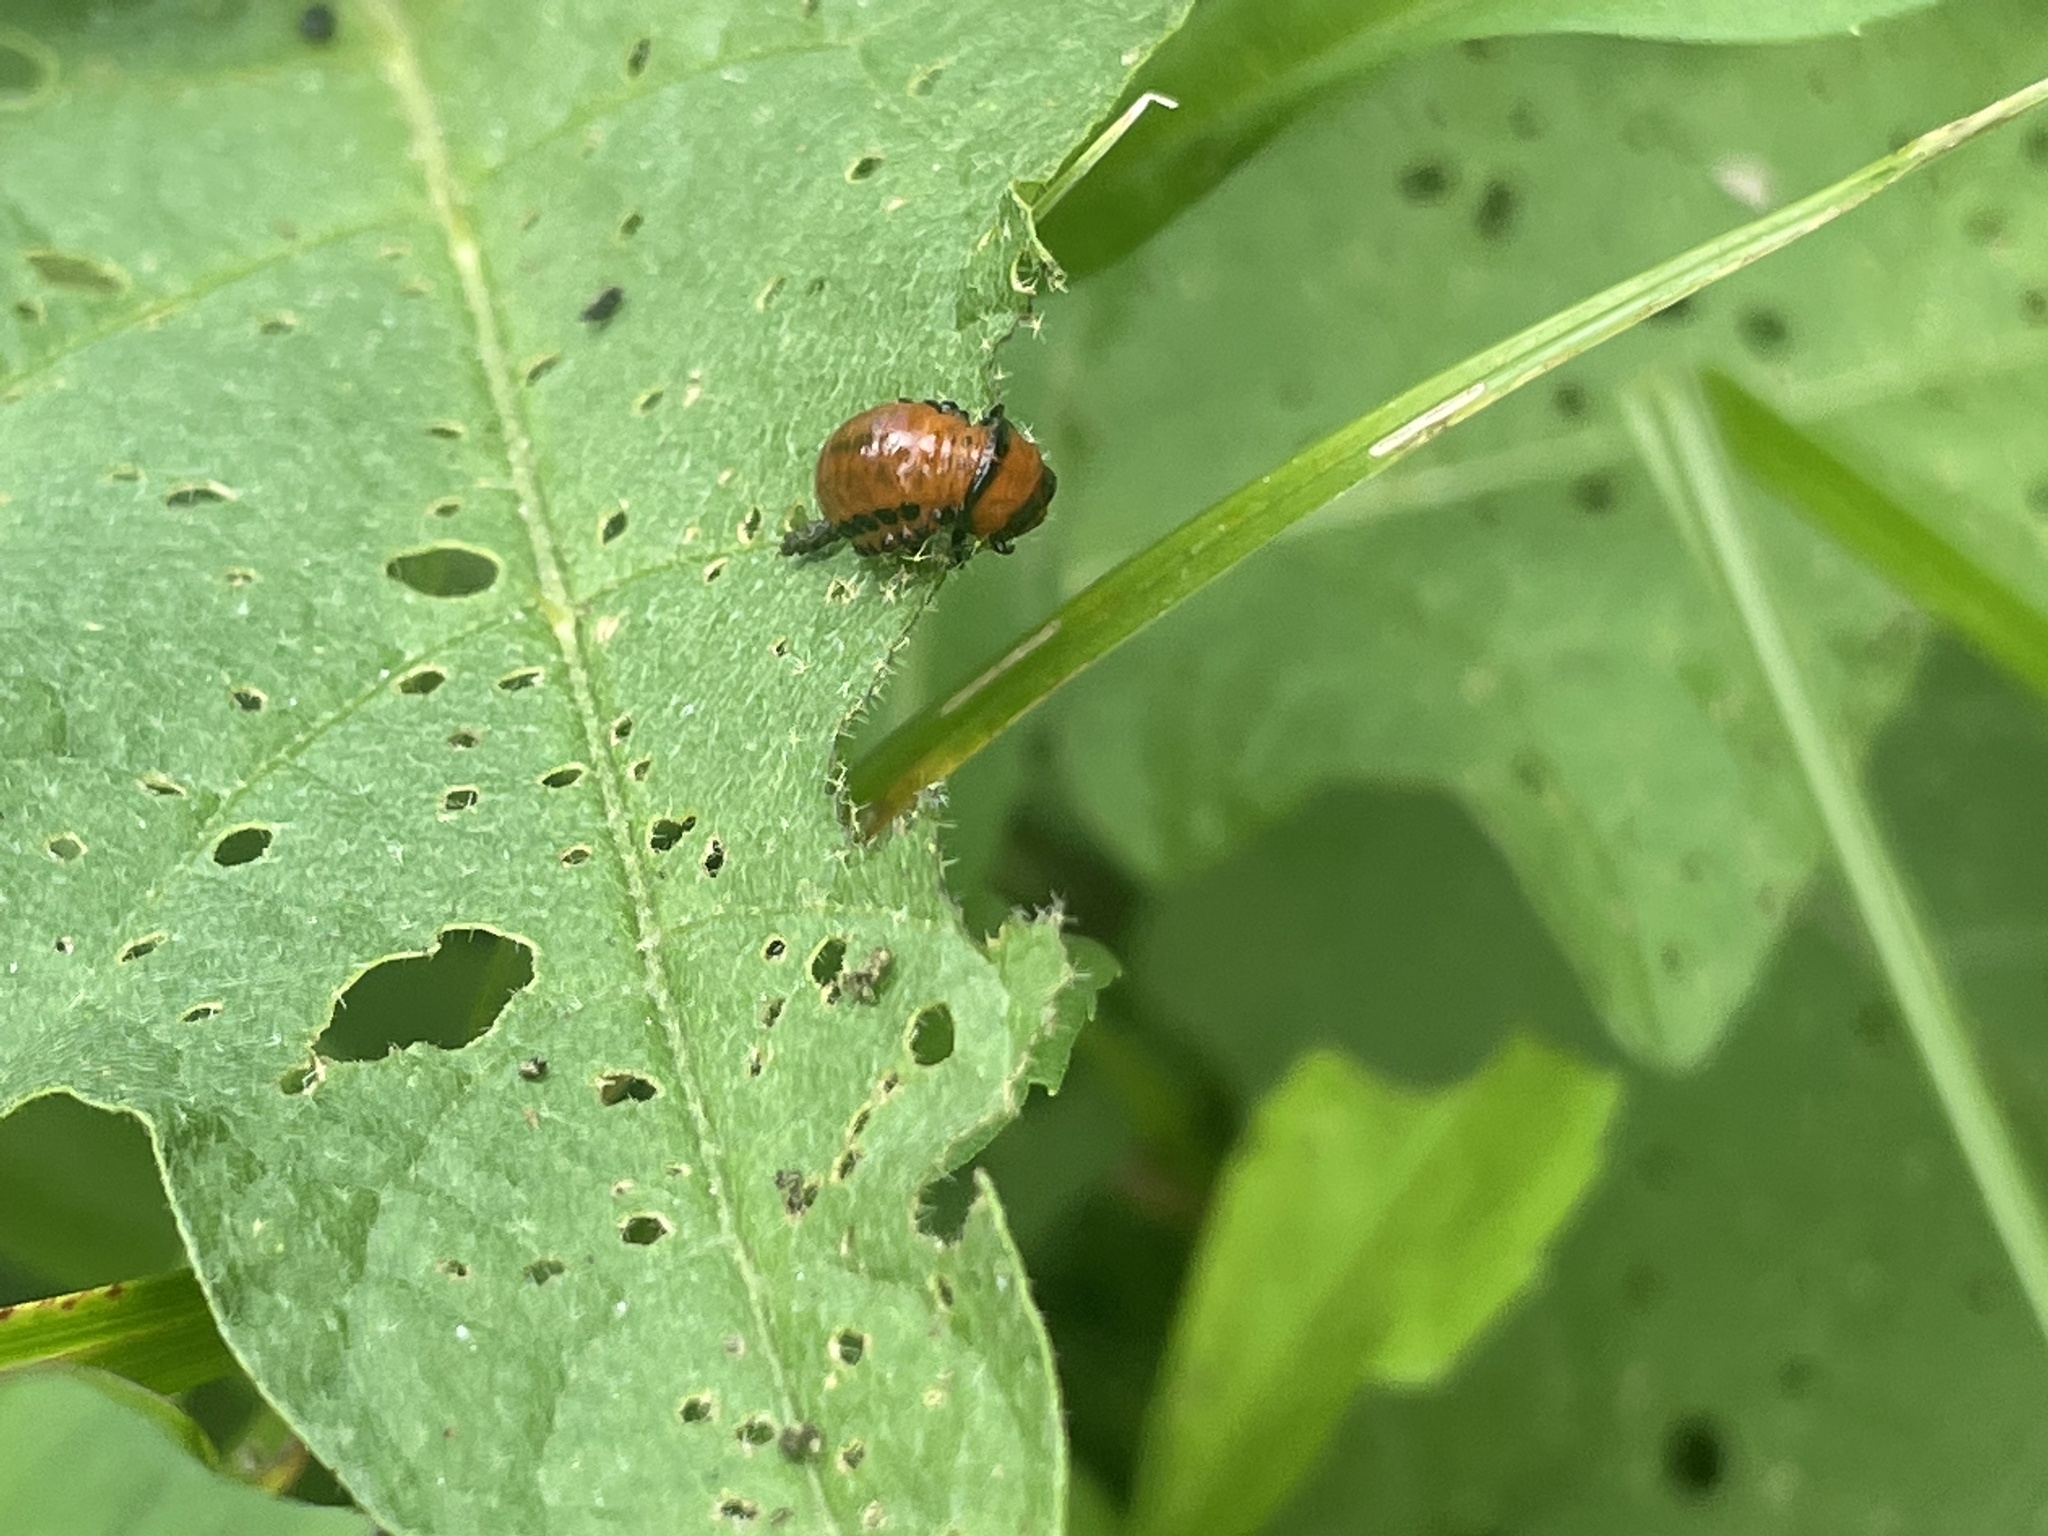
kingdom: Animalia
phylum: Arthropoda
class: Insecta
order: Coleoptera
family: Chrysomelidae
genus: Leptinotarsa
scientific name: Leptinotarsa decemlineata
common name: Colorado potato beetle
